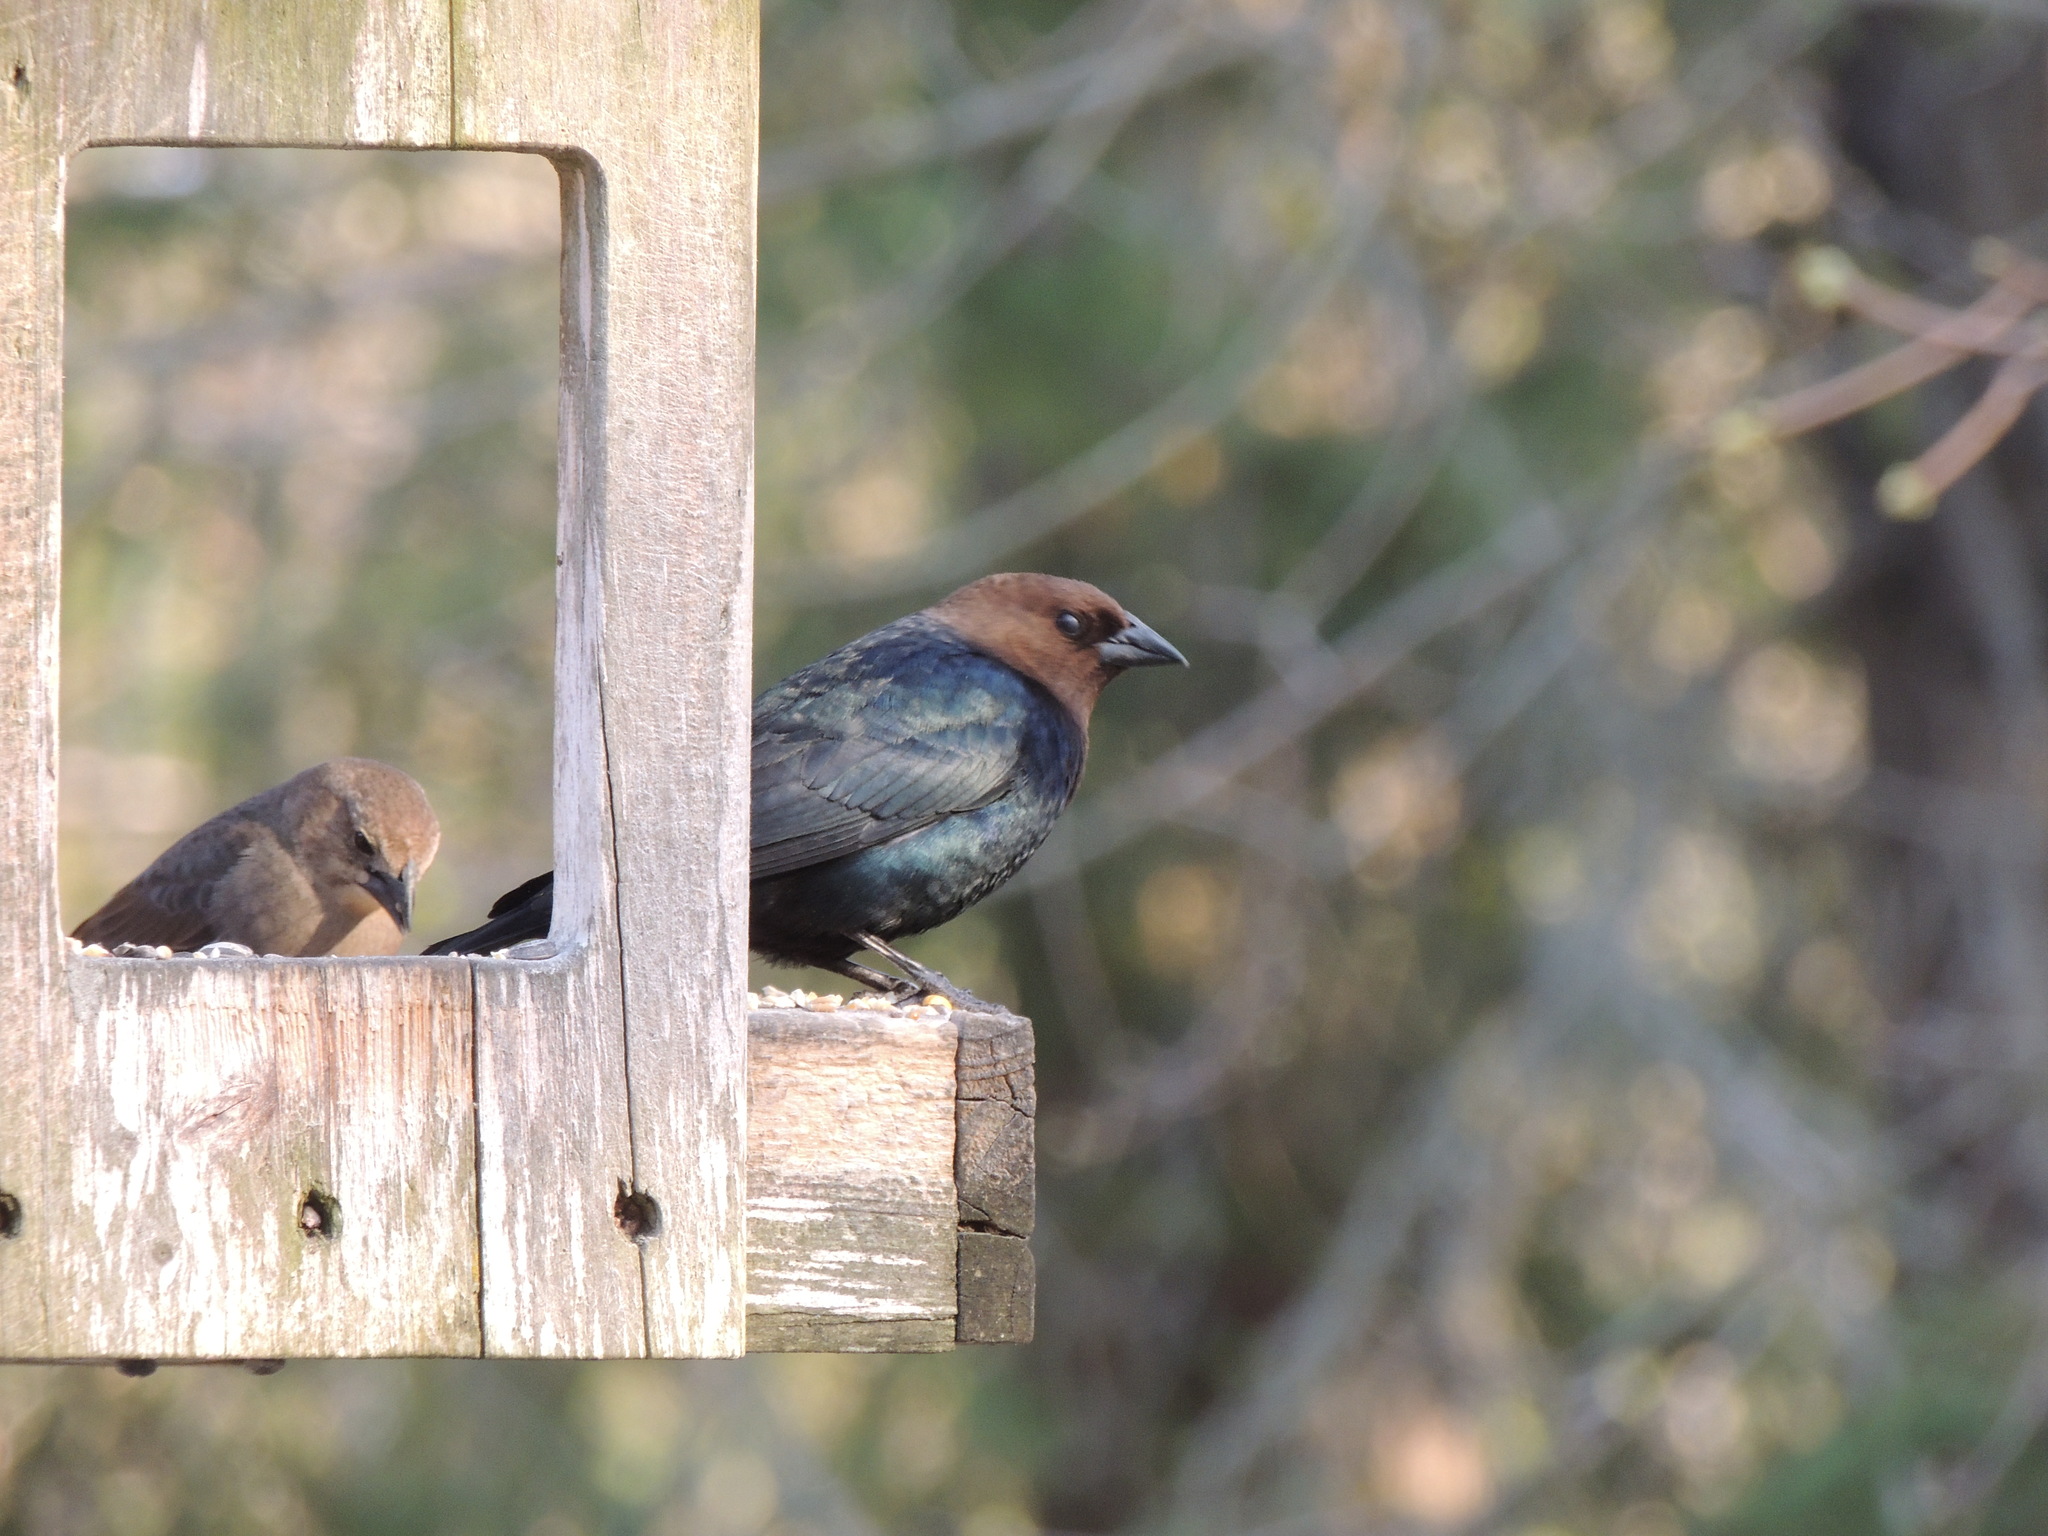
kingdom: Animalia
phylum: Chordata
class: Aves
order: Passeriformes
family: Icteridae
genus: Molothrus
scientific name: Molothrus ater
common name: Brown-headed cowbird
